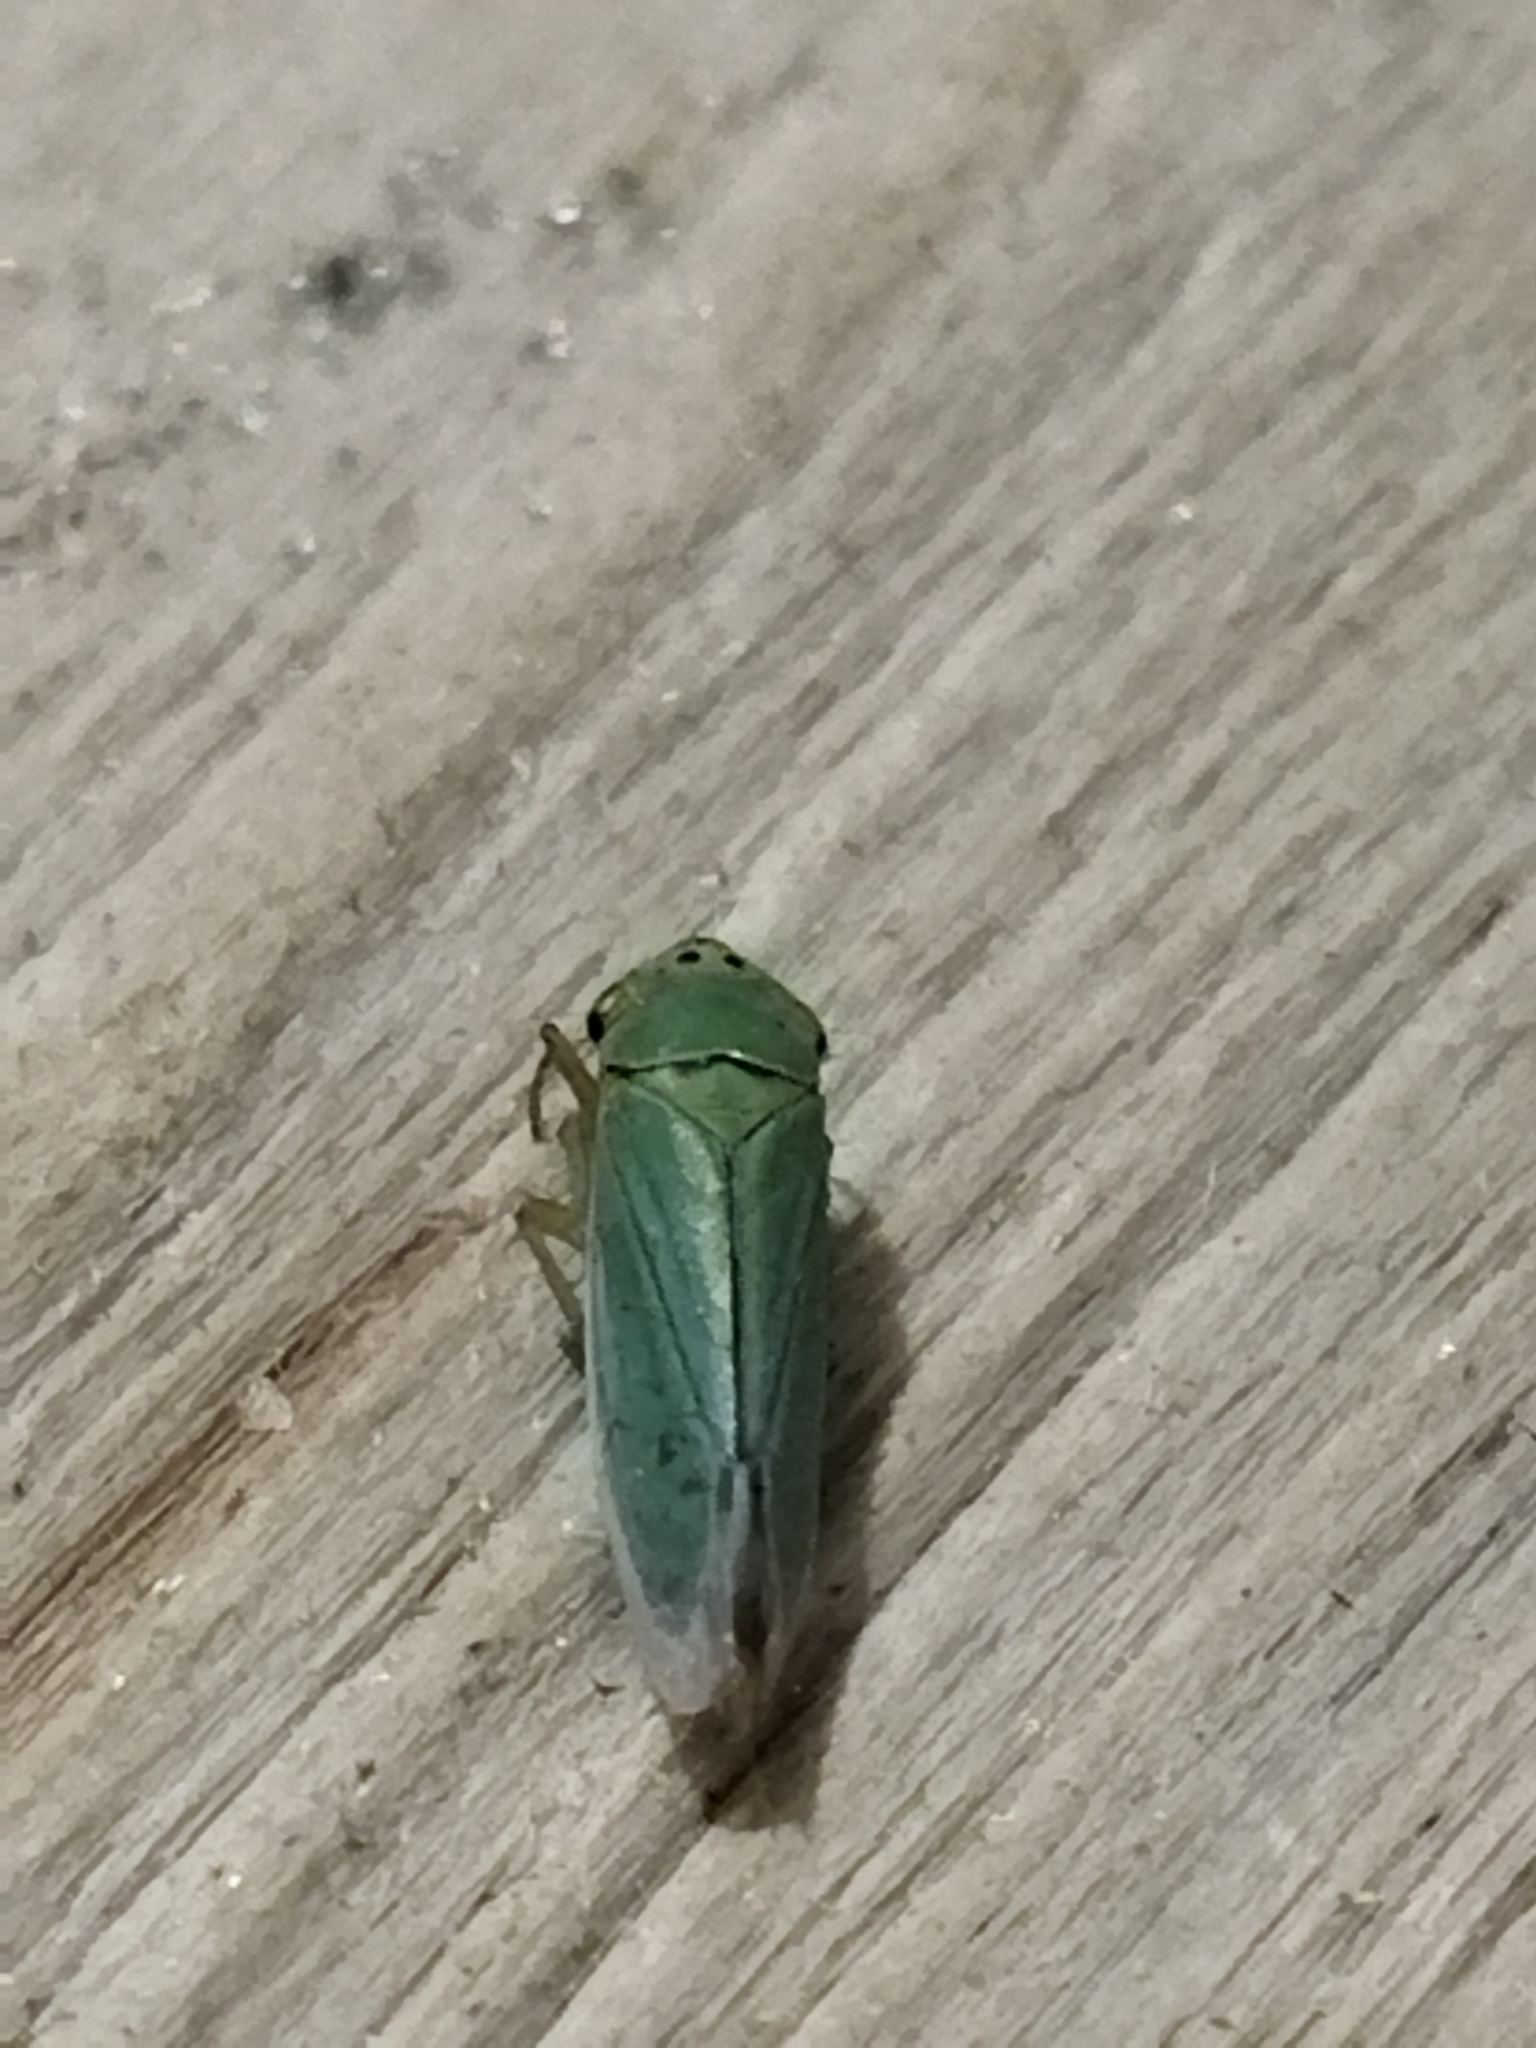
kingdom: Animalia
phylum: Arthropoda
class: Insecta
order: Hemiptera
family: Cicadellidae
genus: Cicadella
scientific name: Cicadella viridis
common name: Leafhopper
